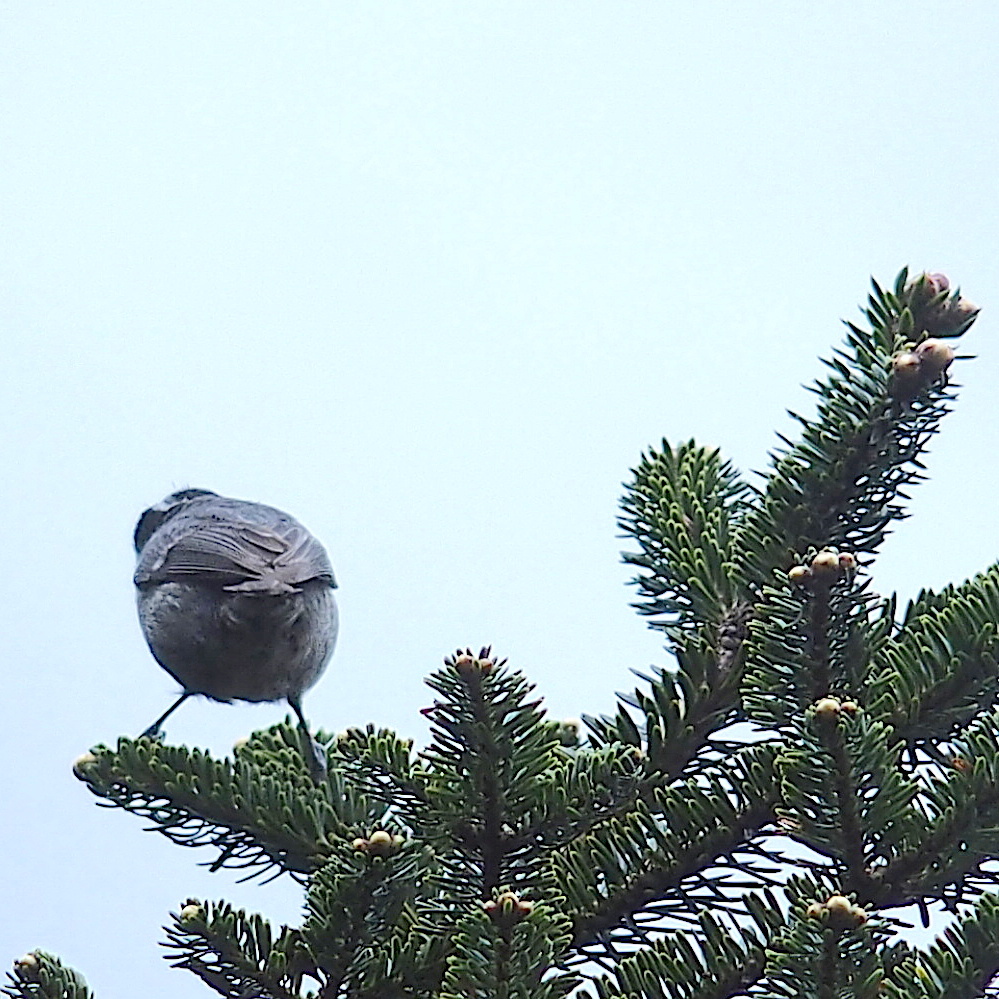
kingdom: Animalia
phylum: Chordata
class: Aves
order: Passeriformes
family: Paridae
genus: Periparus
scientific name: Periparus ater
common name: Coal tit
